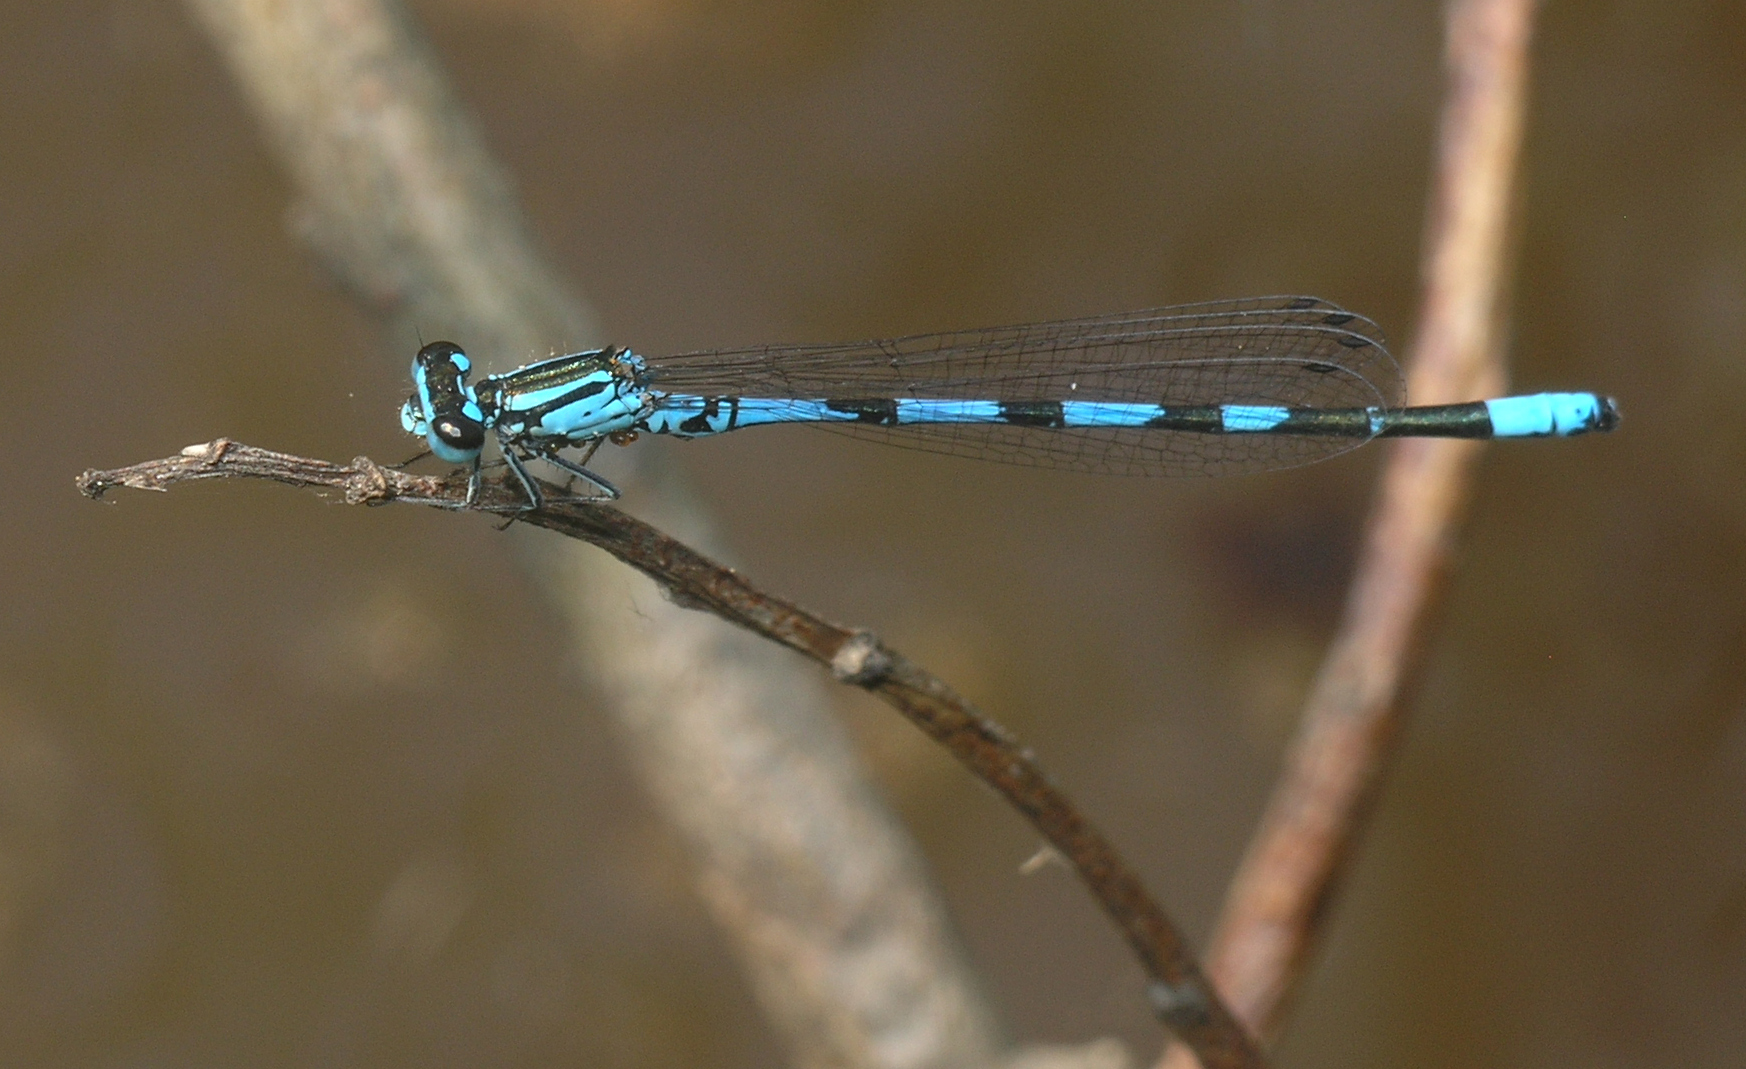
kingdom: Animalia
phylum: Arthropoda
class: Insecta
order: Odonata
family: Coenagrionidae
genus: Coenagrion
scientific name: Coenagrion johanssoni
